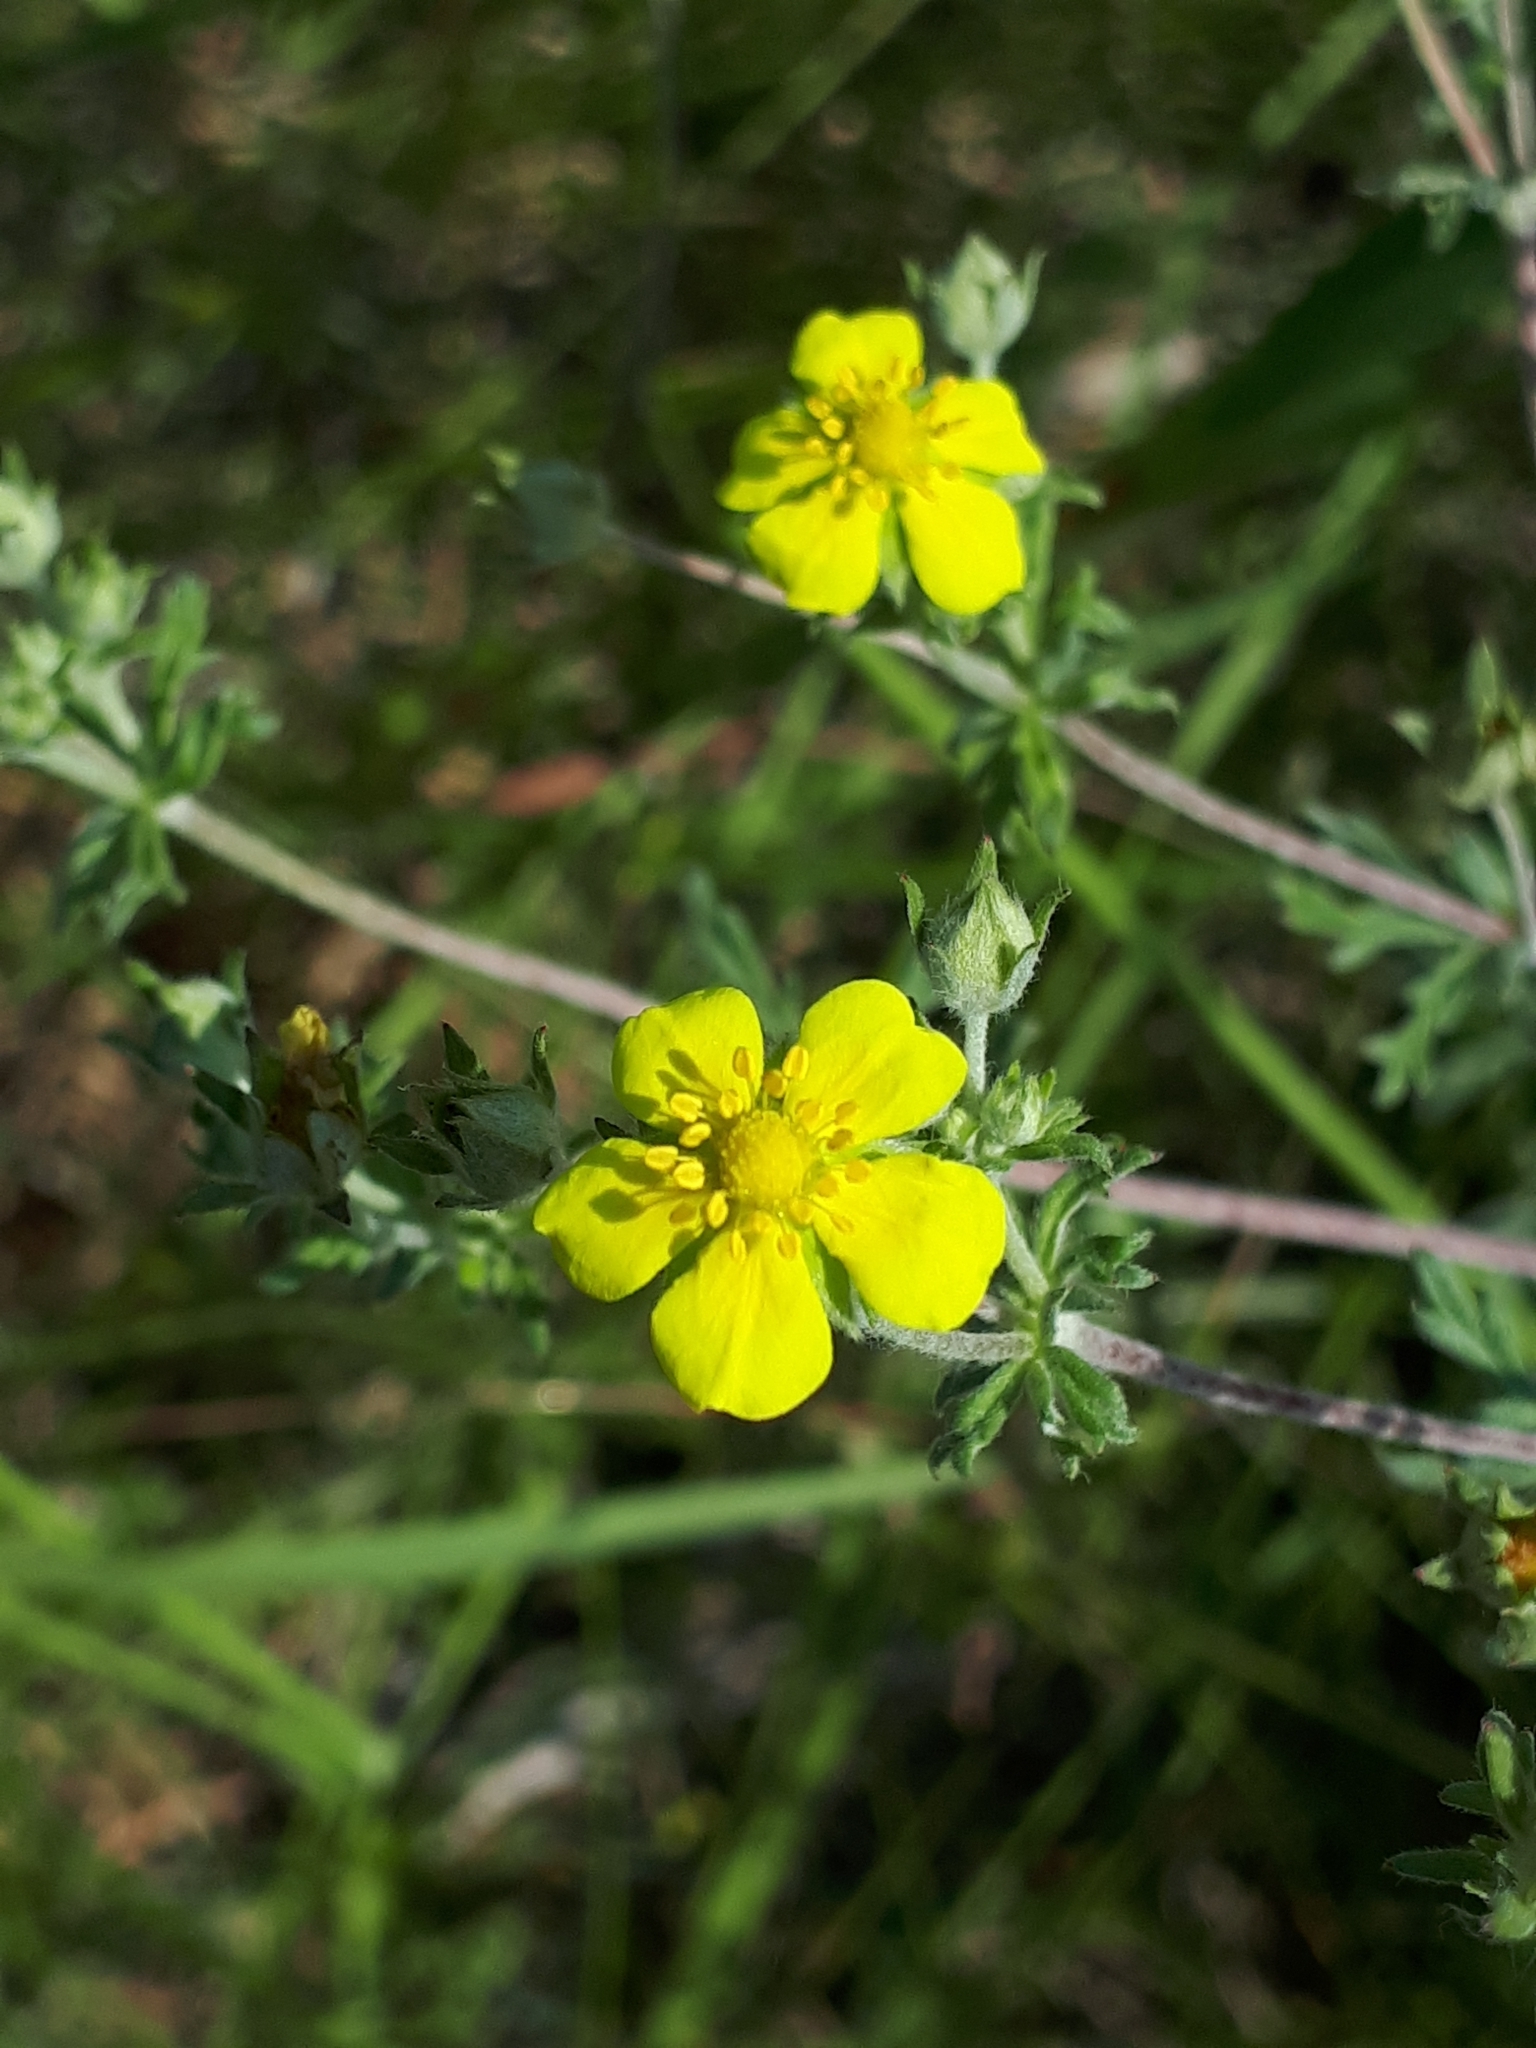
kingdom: Plantae
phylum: Tracheophyta
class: Magnoliopsida
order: Rosales
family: Rosaceae
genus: Potentilla
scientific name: Potentilla argentea
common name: Hoary cinquefoil
